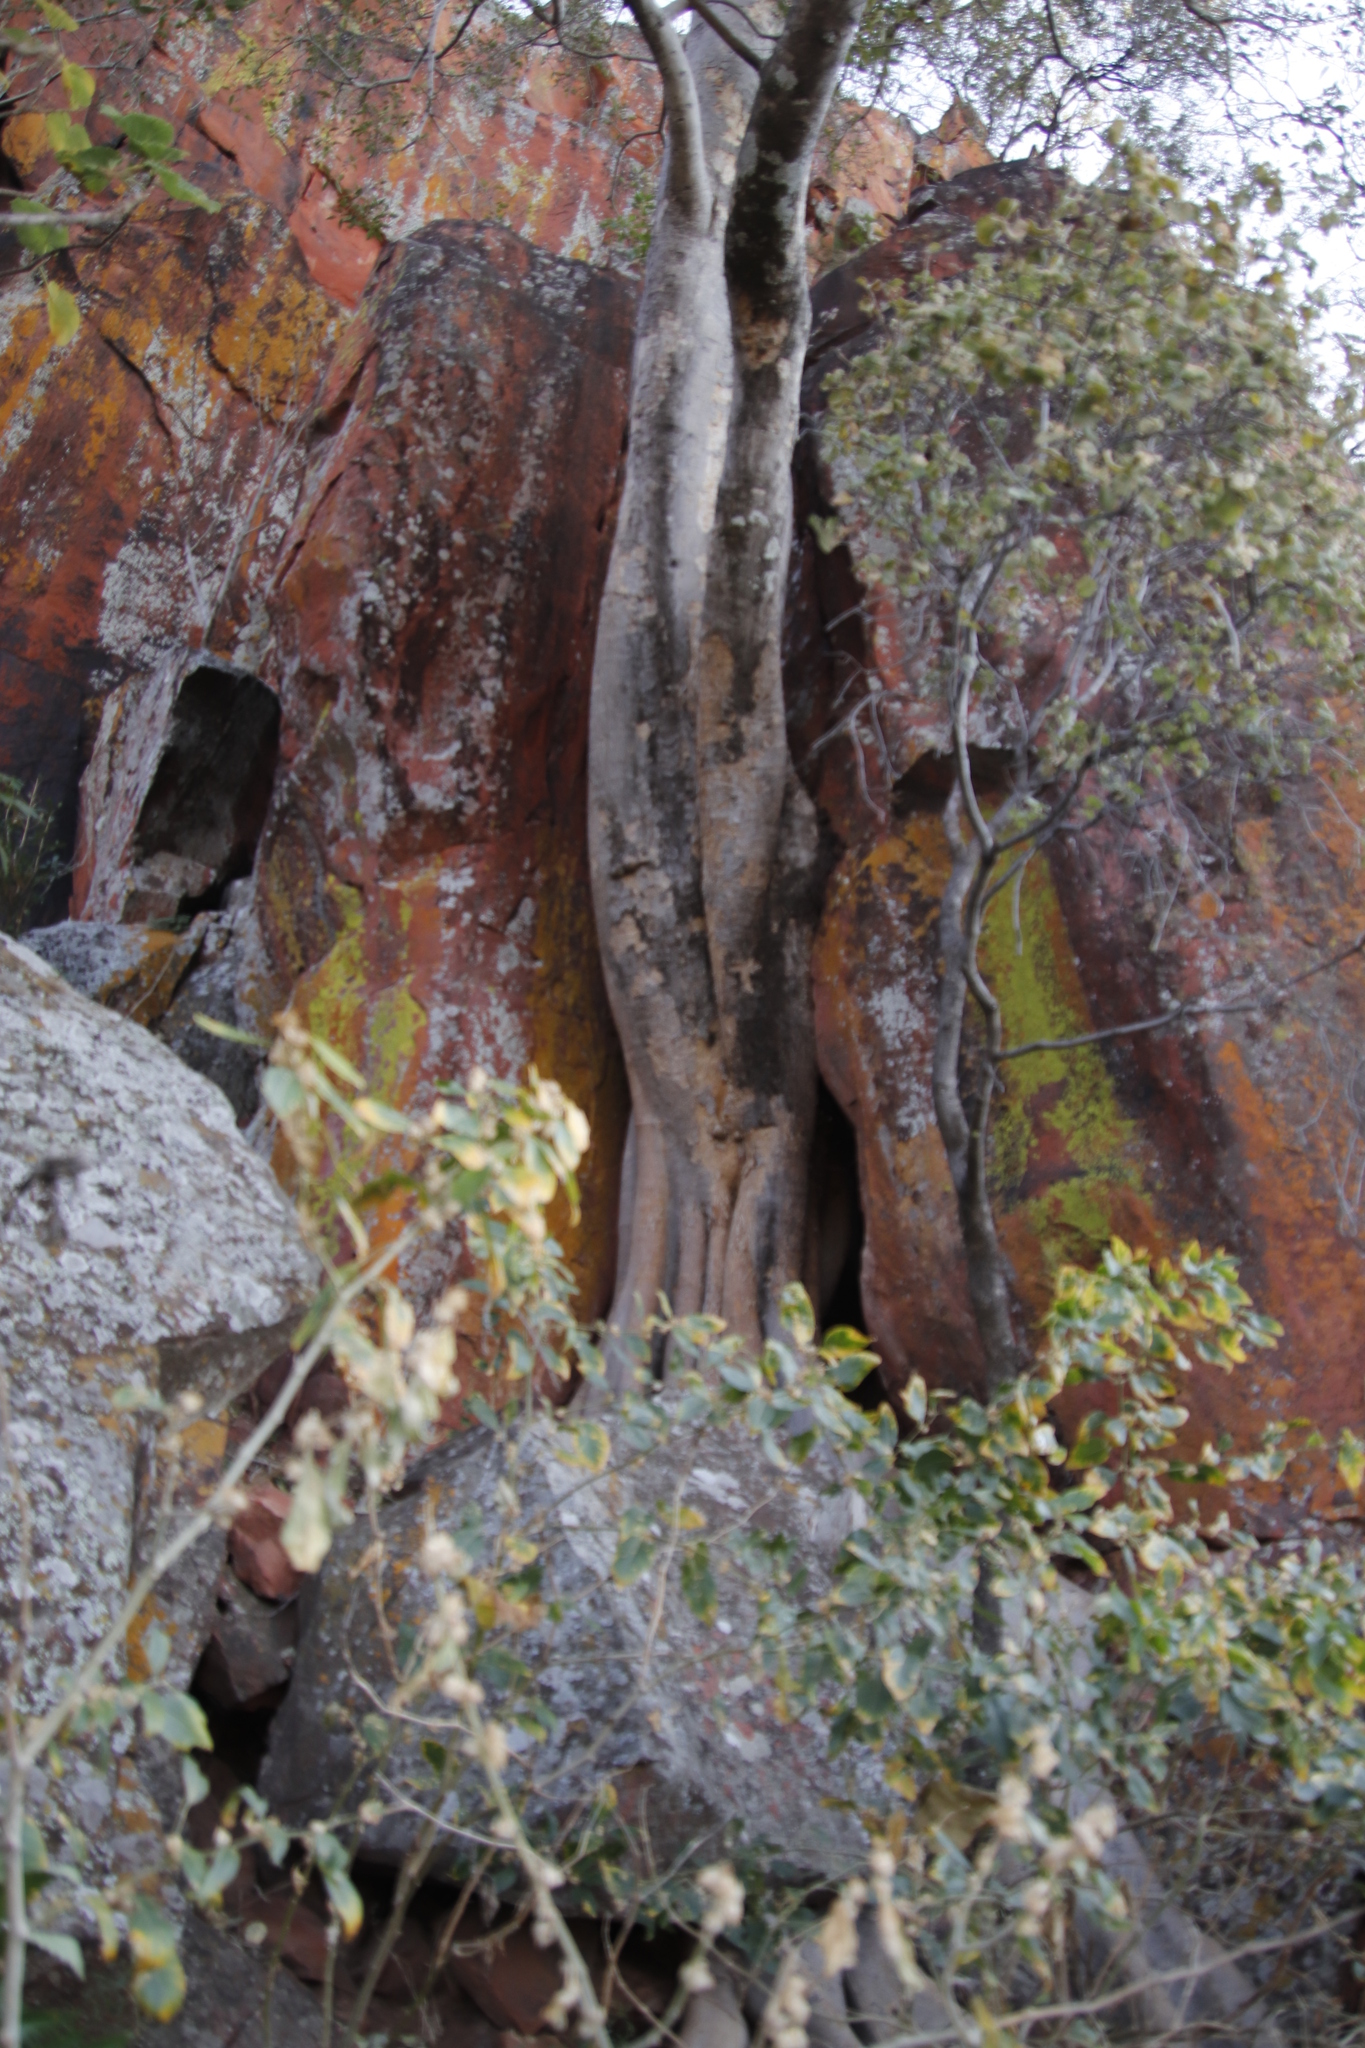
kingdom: Plantae
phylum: Tracheophyta
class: Magnoliopsida
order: Rosales
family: Moraceae
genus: Ficus
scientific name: Ficus cordata
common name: Namaqua rock fig
